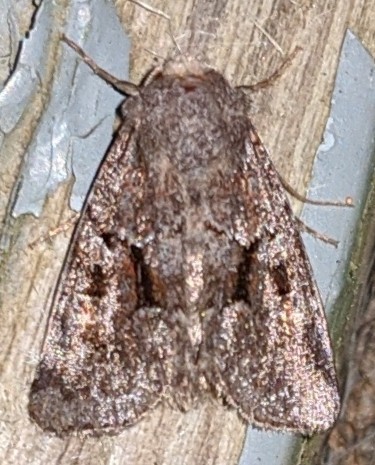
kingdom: Animalia
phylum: Arthropoda
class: Insecta
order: Lepidoptera
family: Noctuidae
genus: Oligia
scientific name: Oligia minuscula
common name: Small brocade
